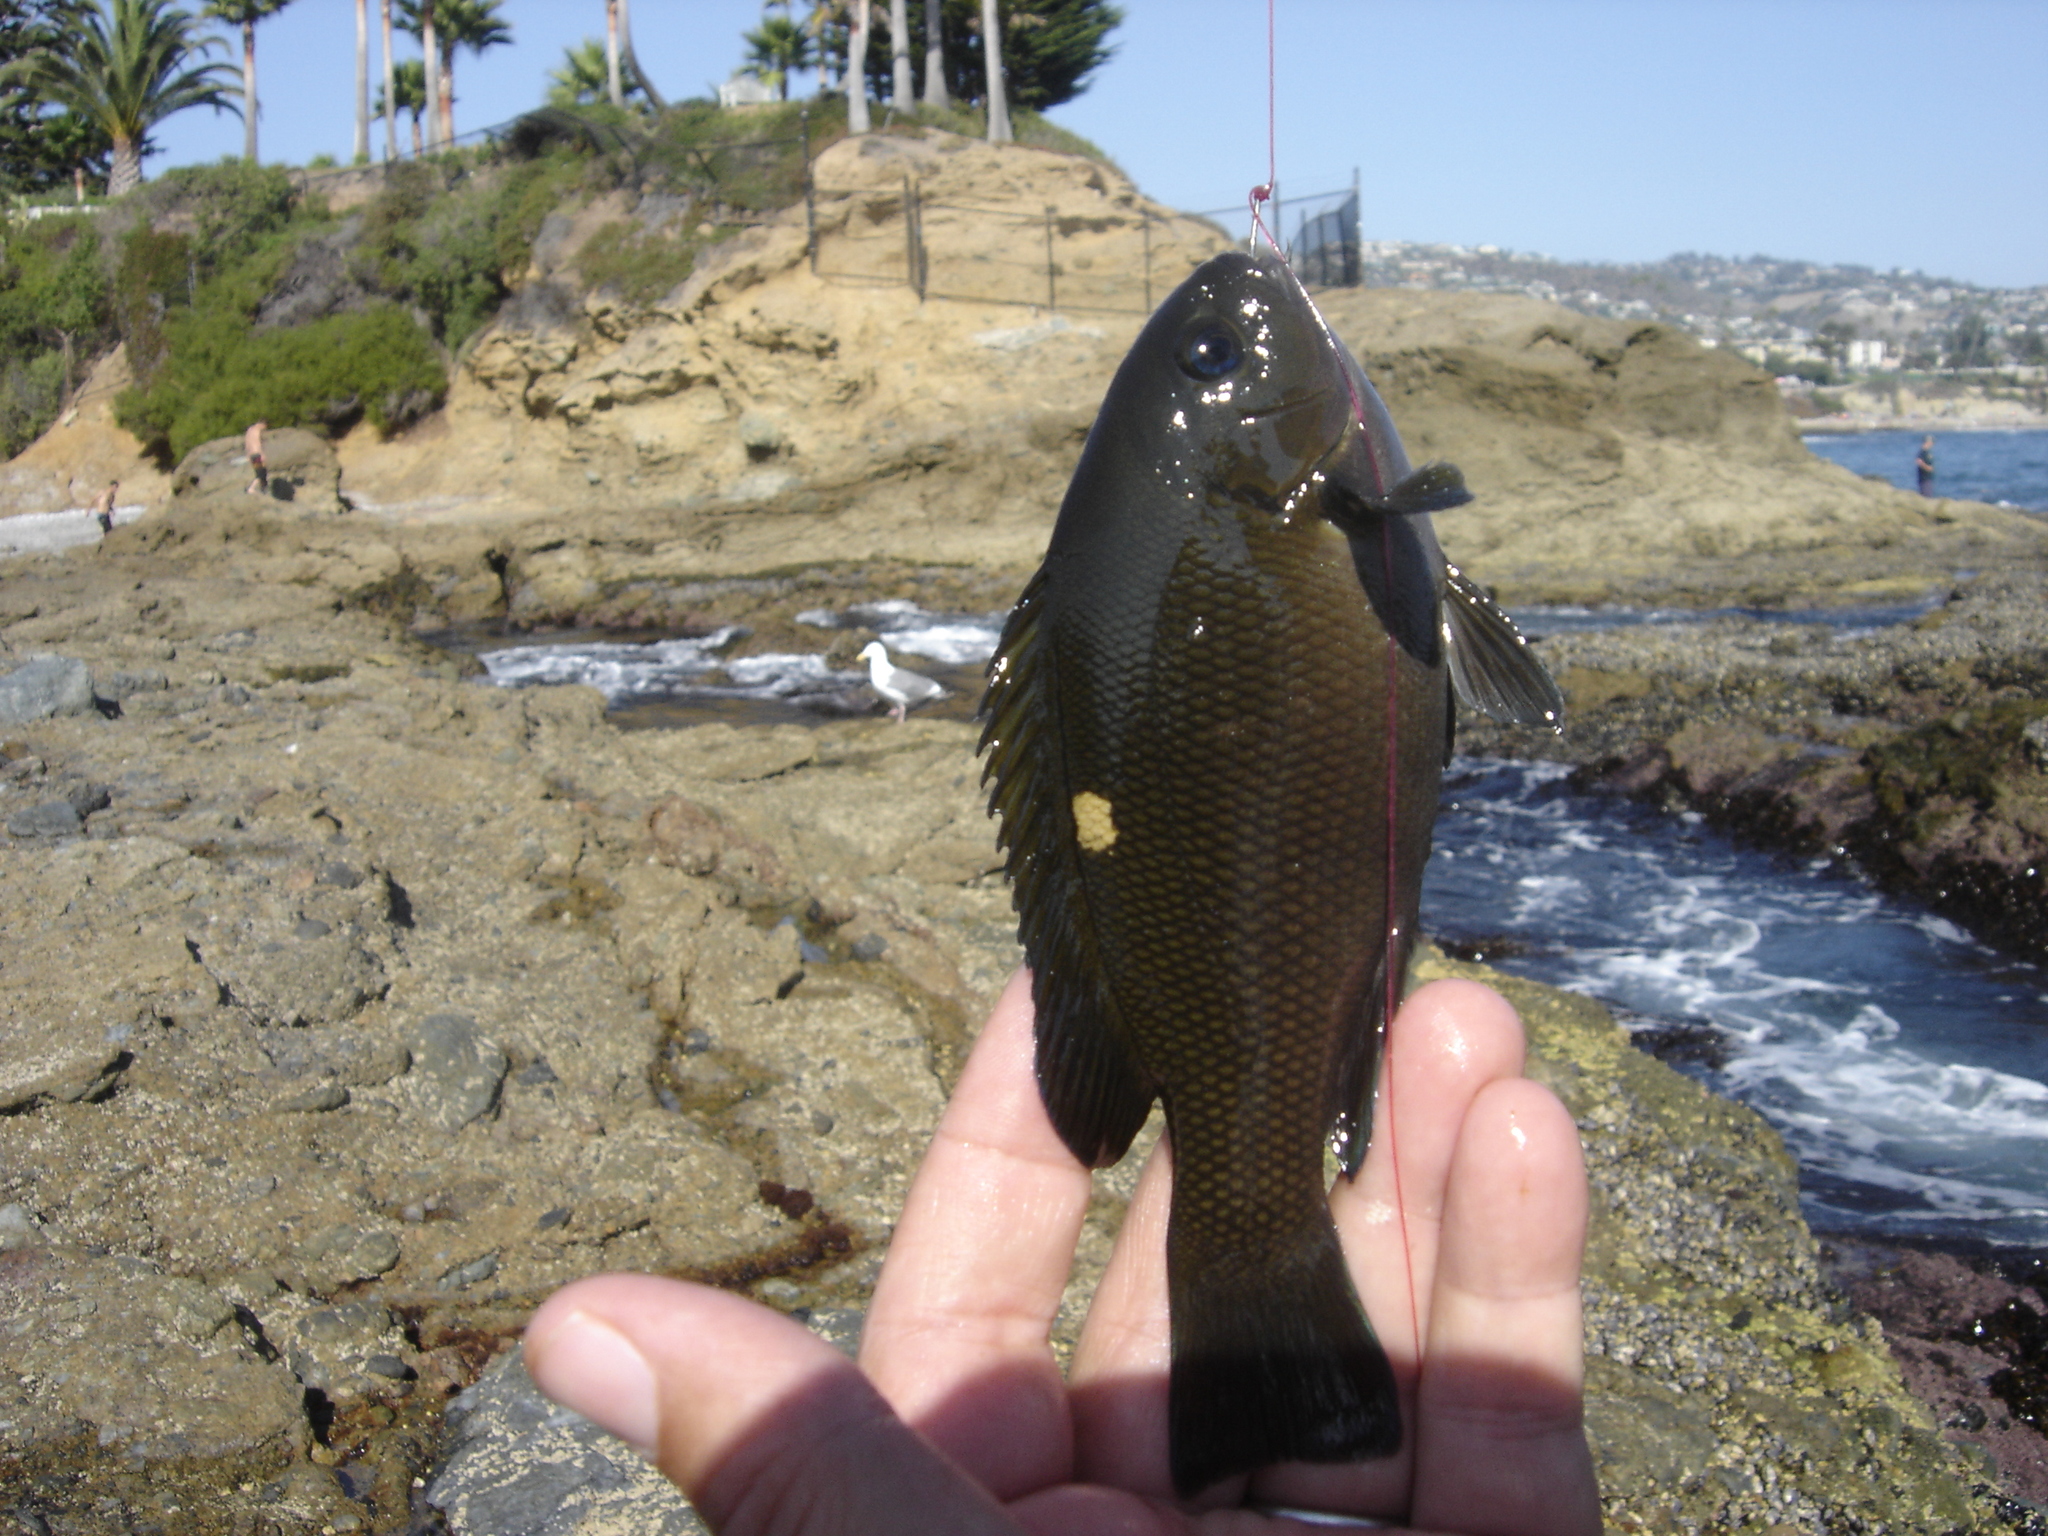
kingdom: Animalia
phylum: Chordata
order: Perciformes
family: Kyphosidae
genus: Girella
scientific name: Girella nigricans
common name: Opaleye
